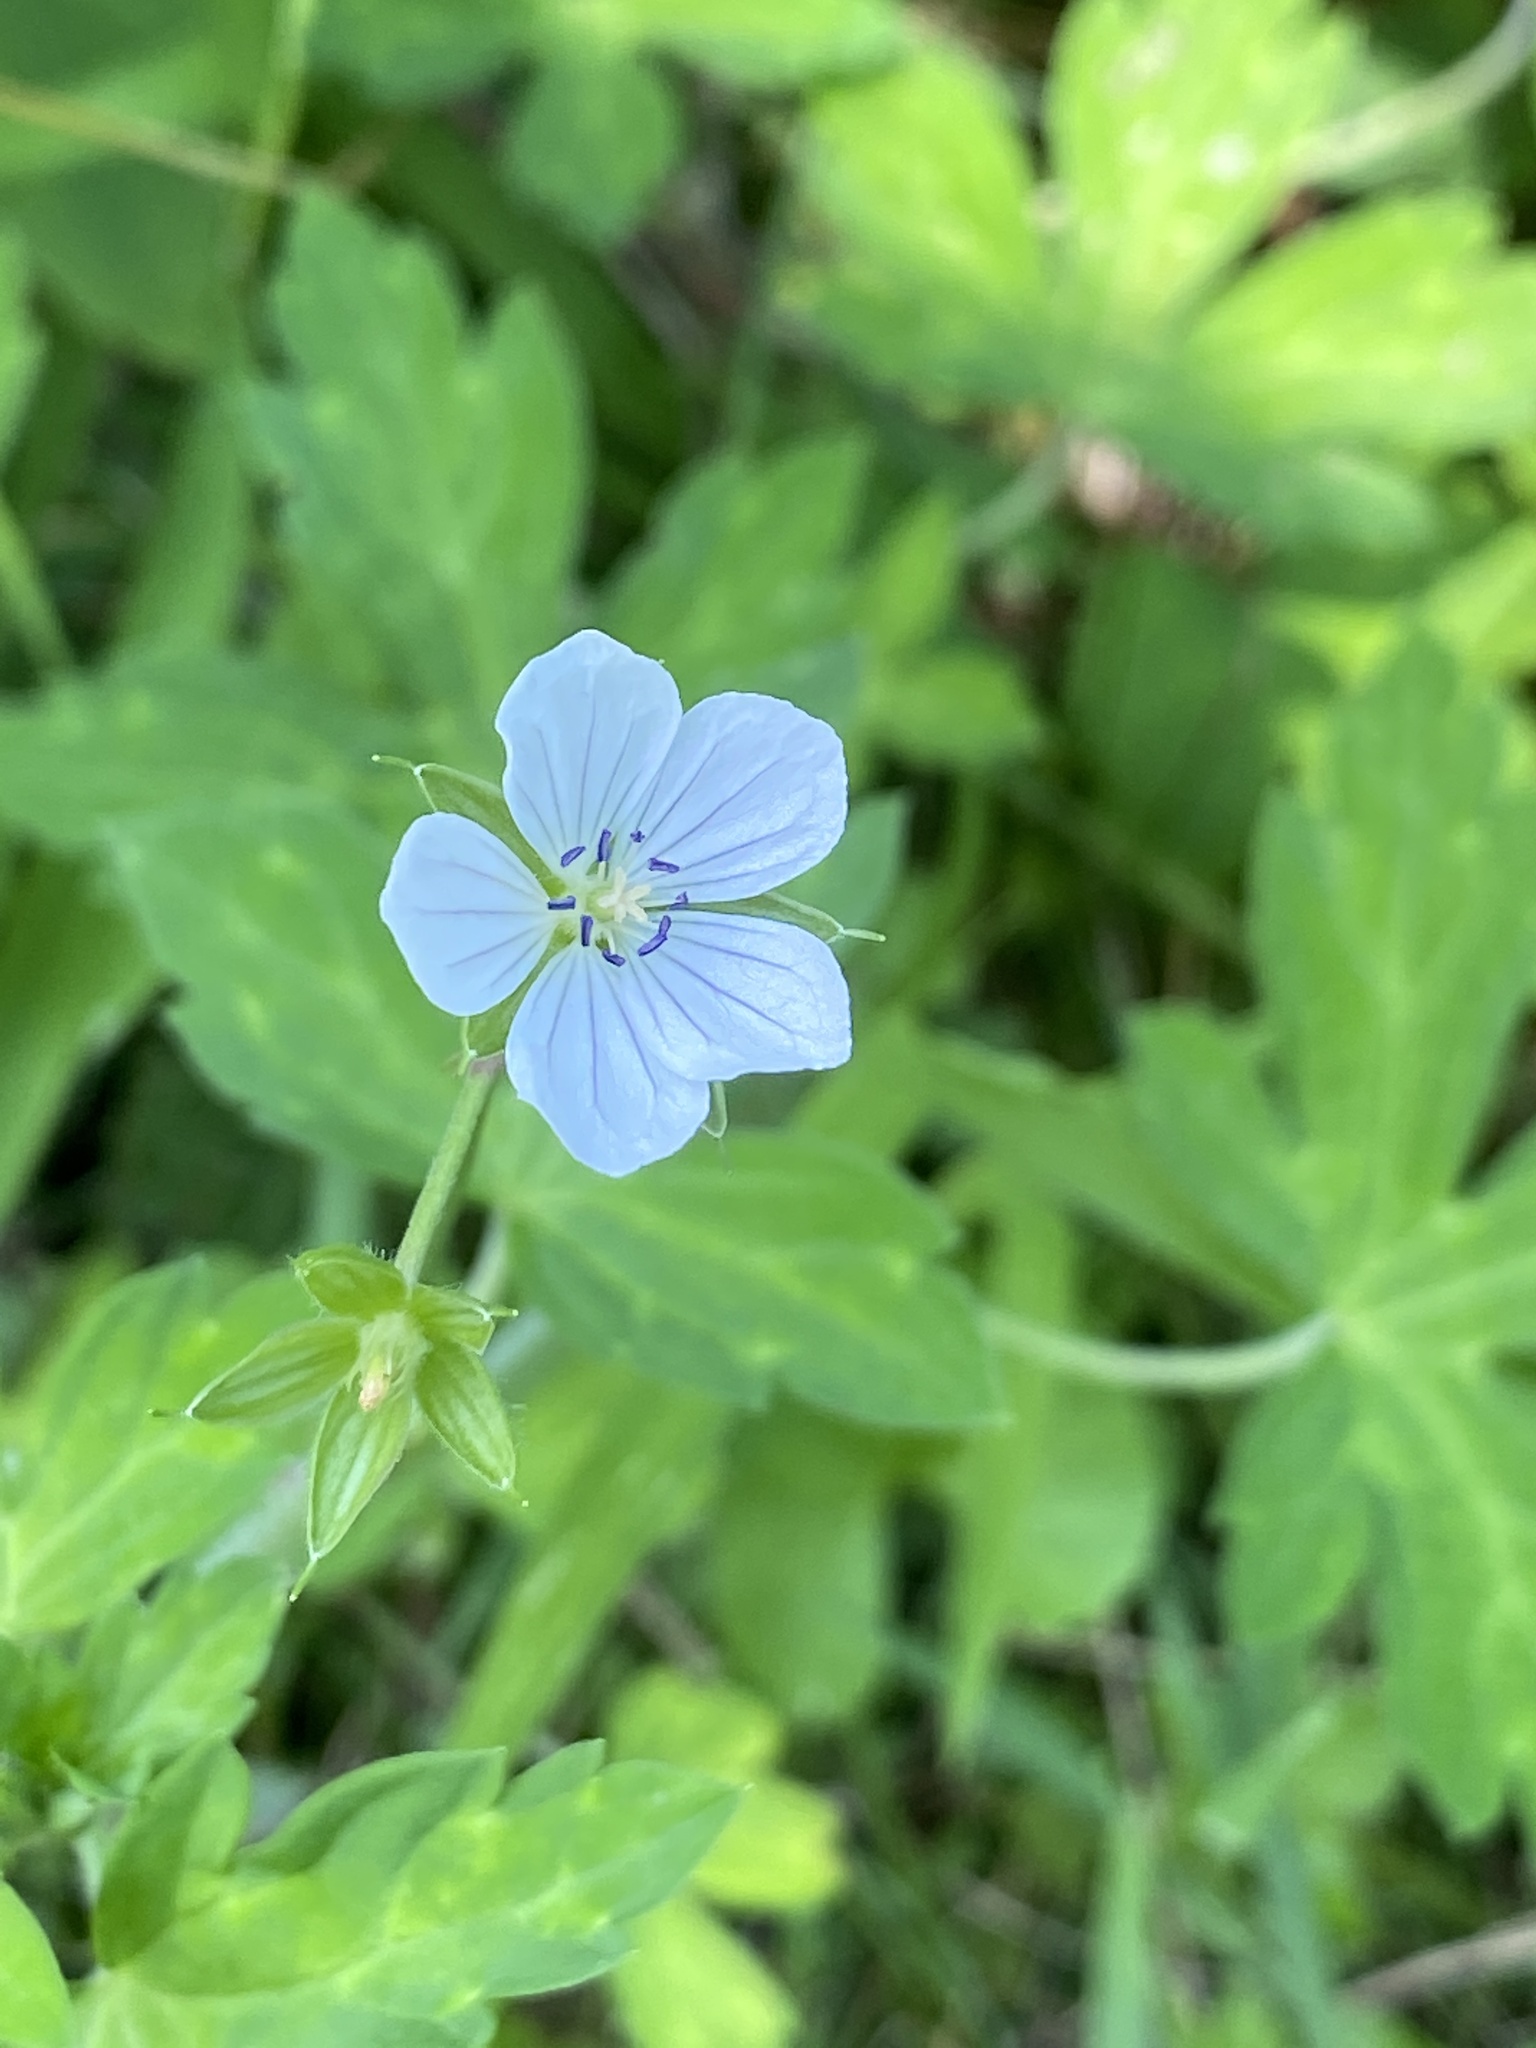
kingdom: Plantae
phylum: Tracheophyta
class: Magnoliopsida
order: Geraniales
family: Geraniaceae
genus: Geranium
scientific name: Geranium thunbergii
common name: Dewdrop crane's-bill
